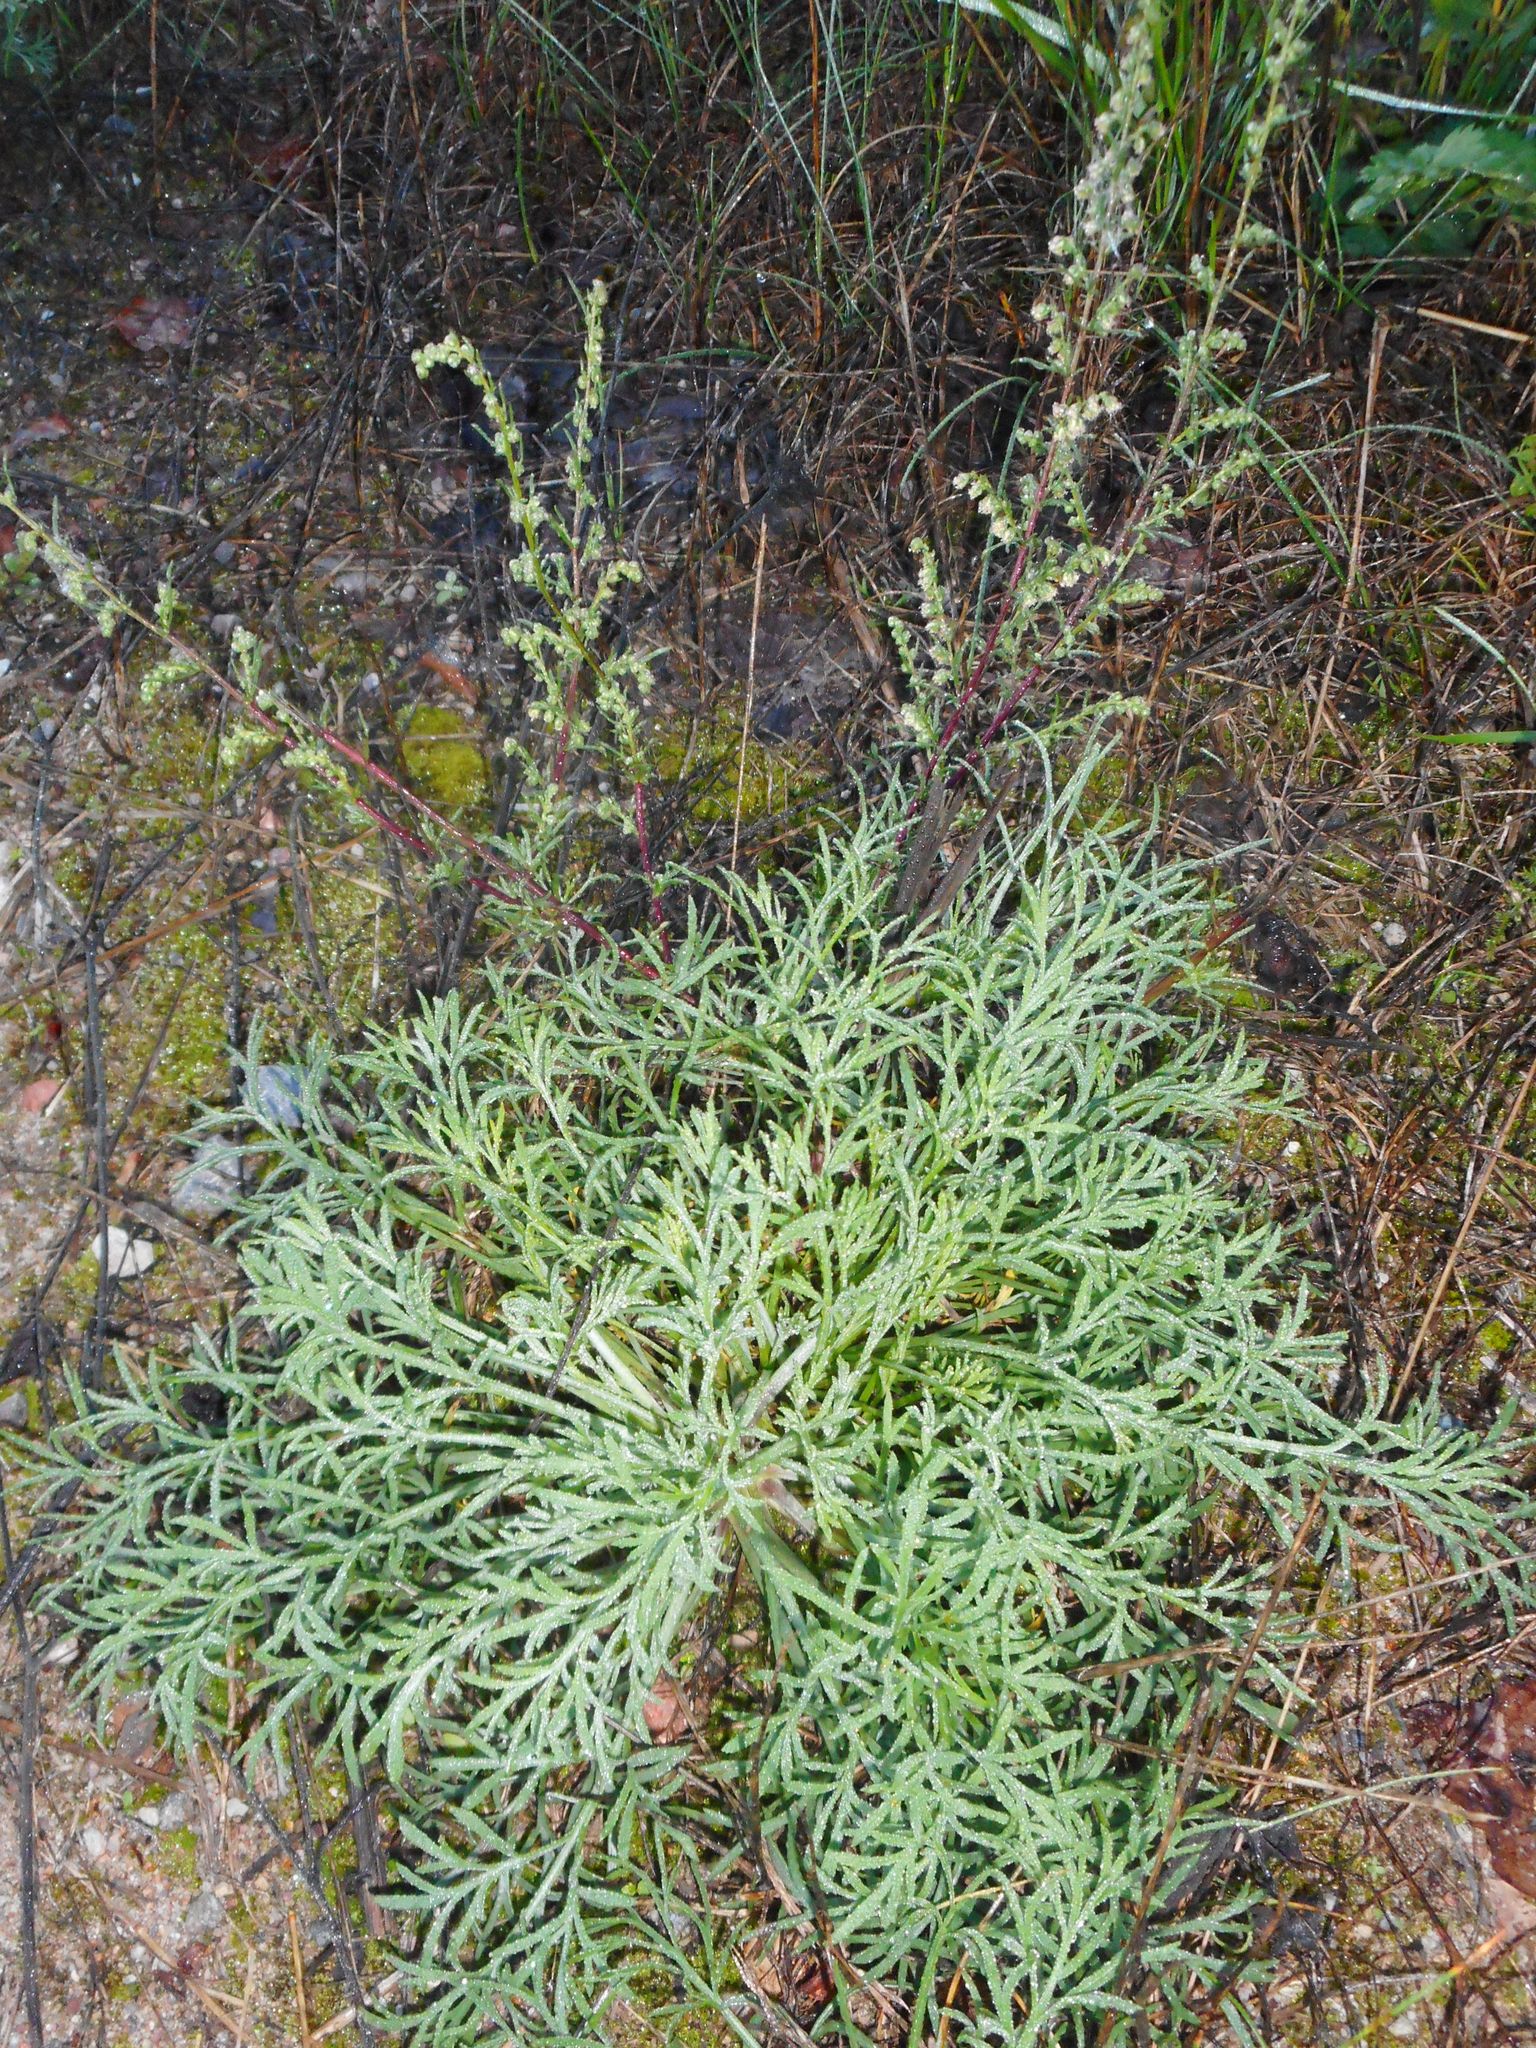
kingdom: Plantae
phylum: Tracheophyta
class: Magnoliopsida
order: Asterales
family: Asteraceae
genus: Artemisia
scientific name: Artemisia campestris
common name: Field wormwood
